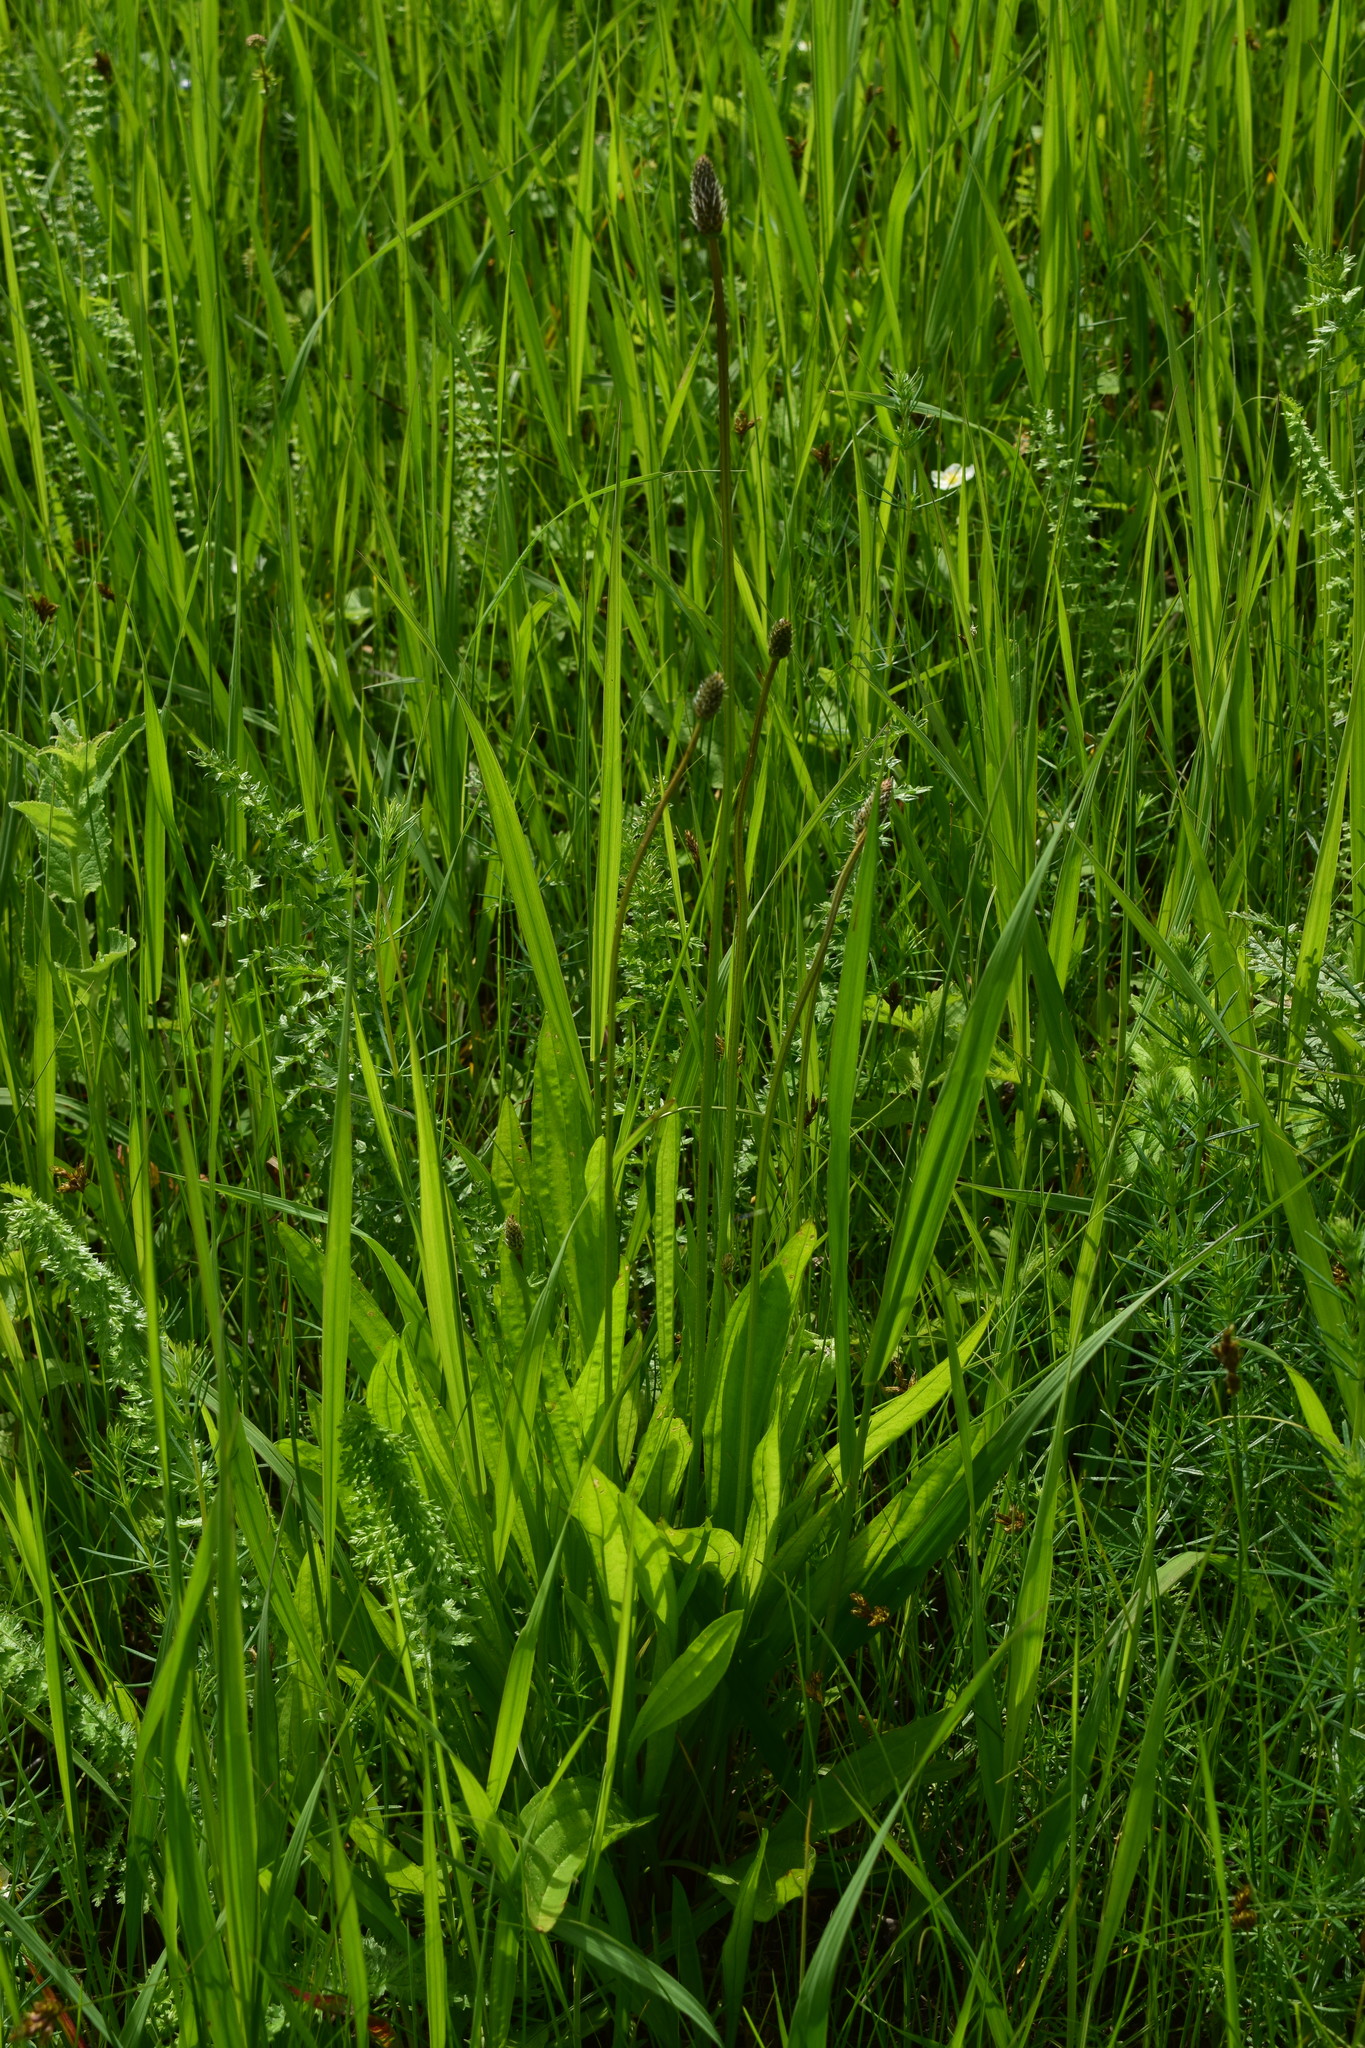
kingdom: Plantae
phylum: Tracheophyta
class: Magnoliopsida
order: Lamiales
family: Plantaginaceae
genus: Plantago
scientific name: Plantago lanceolata
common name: Ribwort plantain
